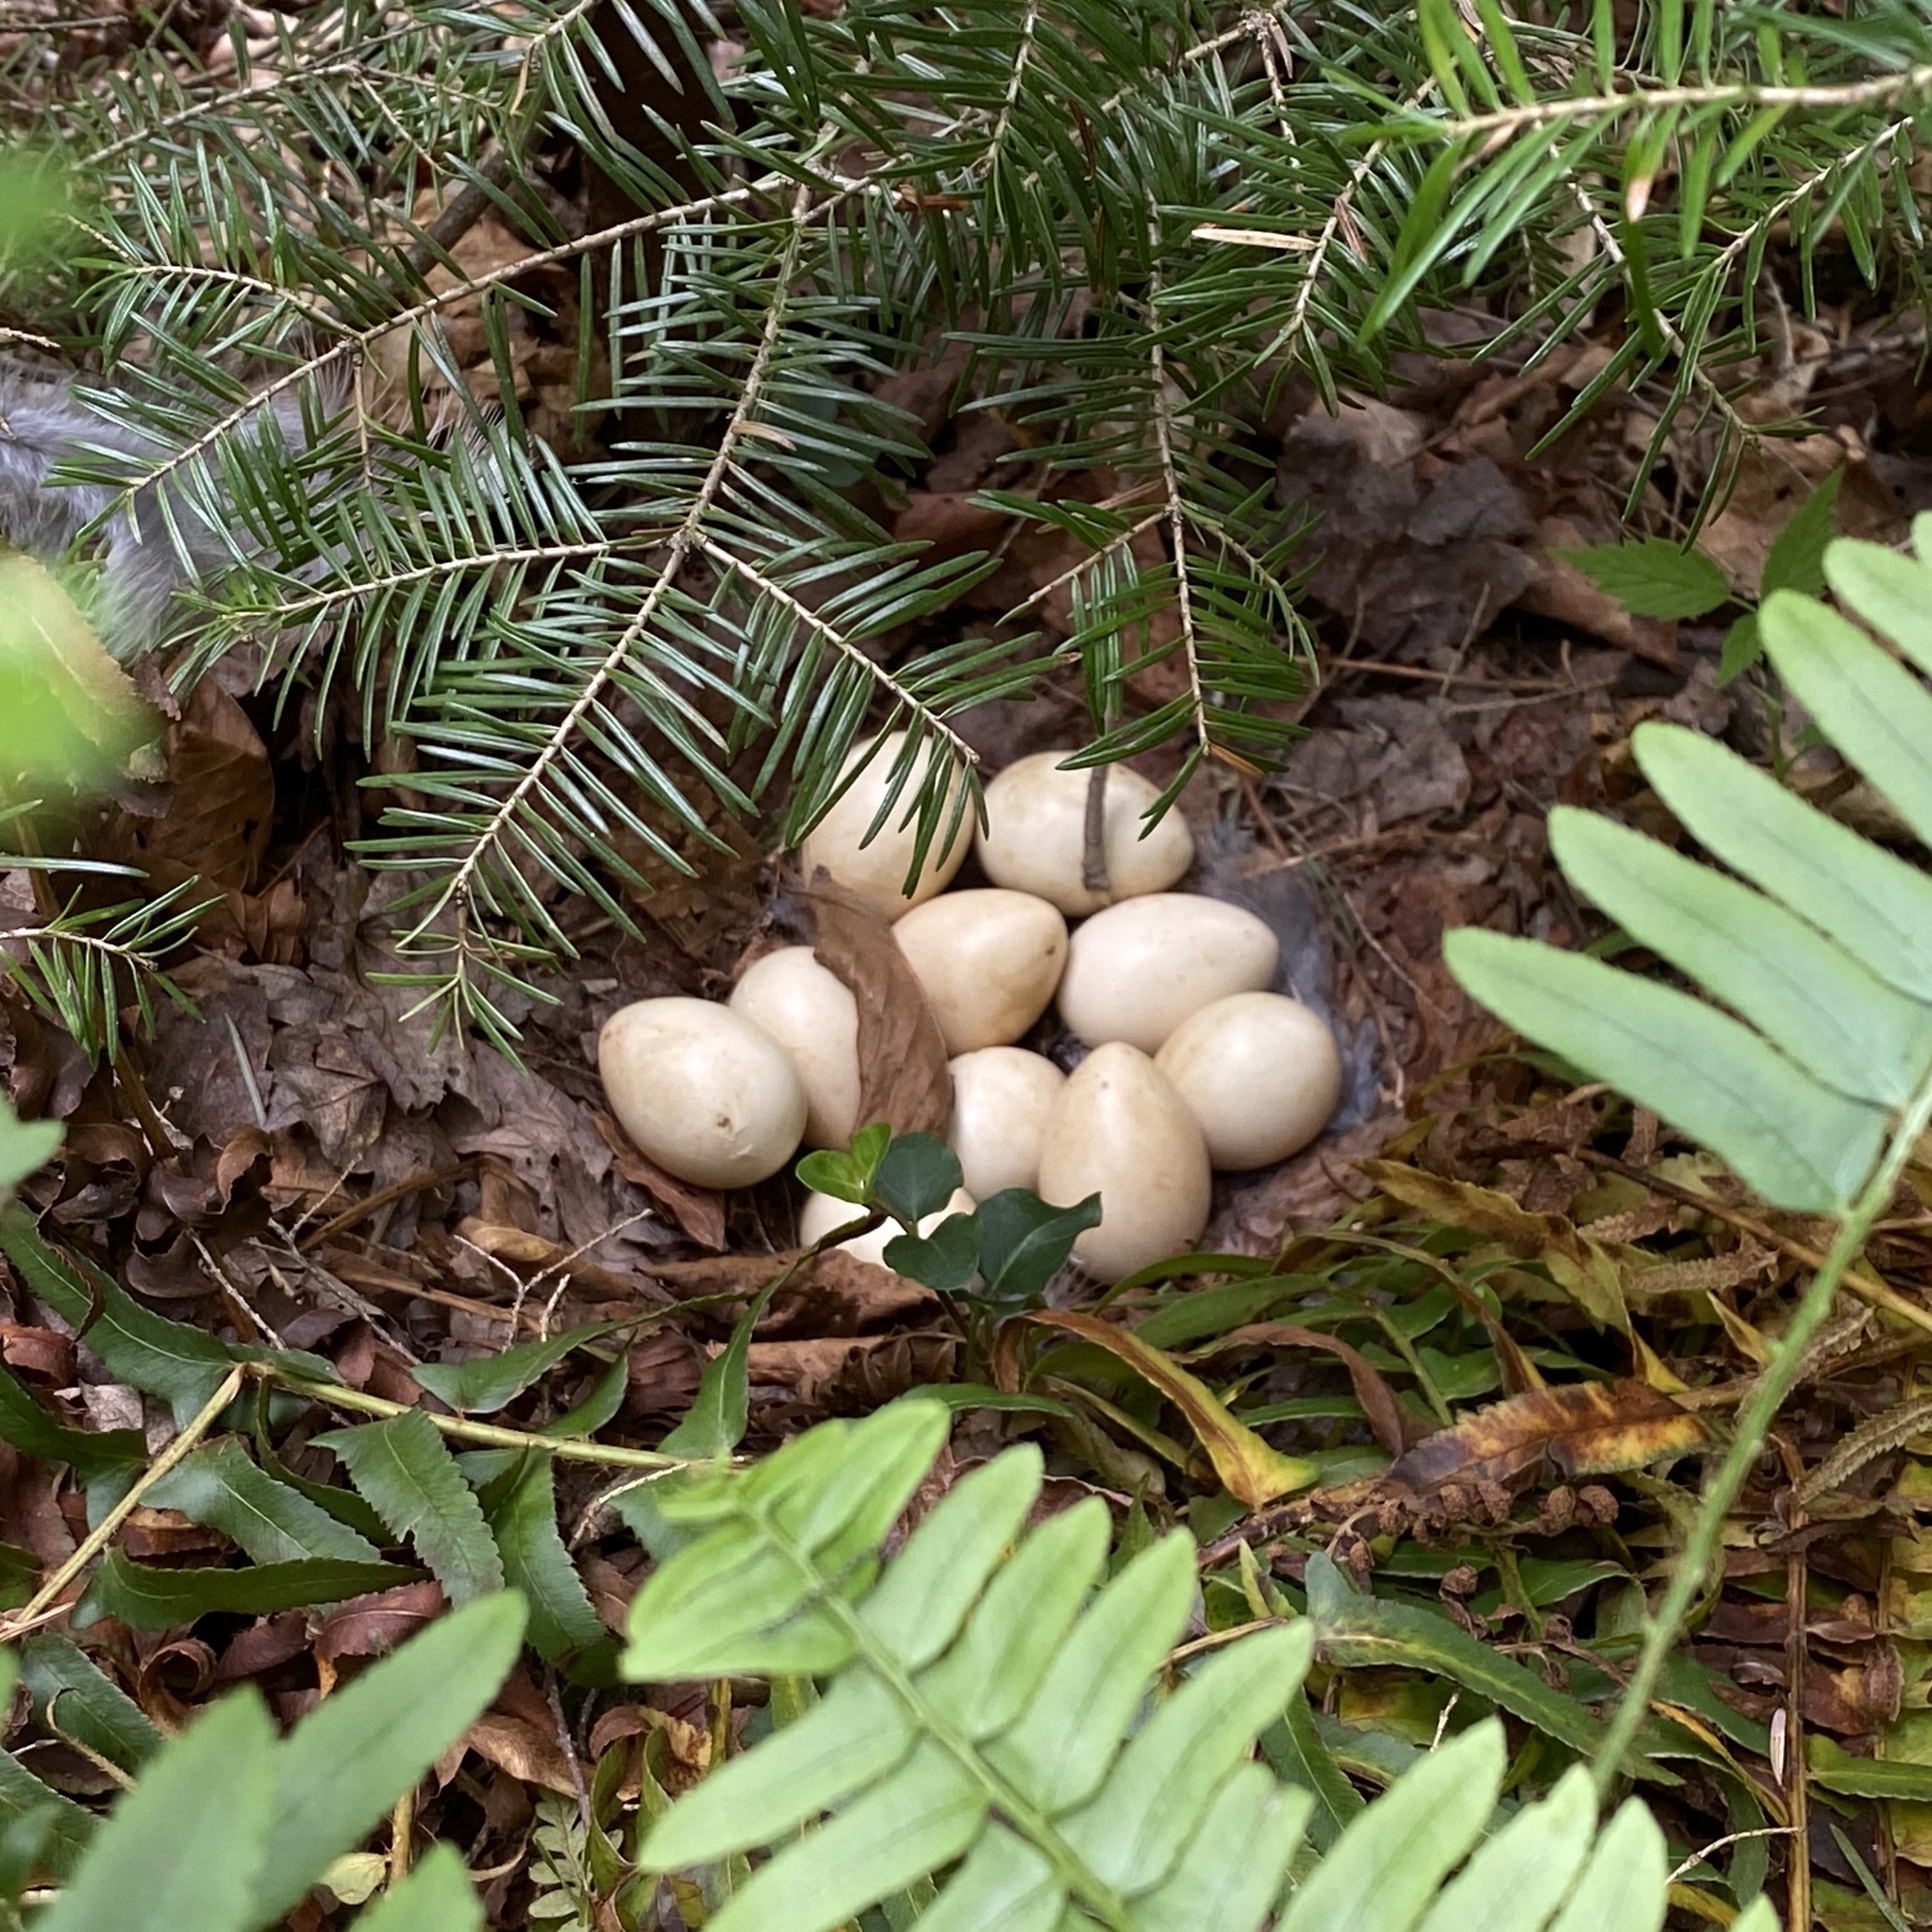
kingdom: Animalia
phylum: Chordata
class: Aves
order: Galliformes
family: Phasianidae
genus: Bonasa
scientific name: Bonasa umbellus
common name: Ruffed grouse
